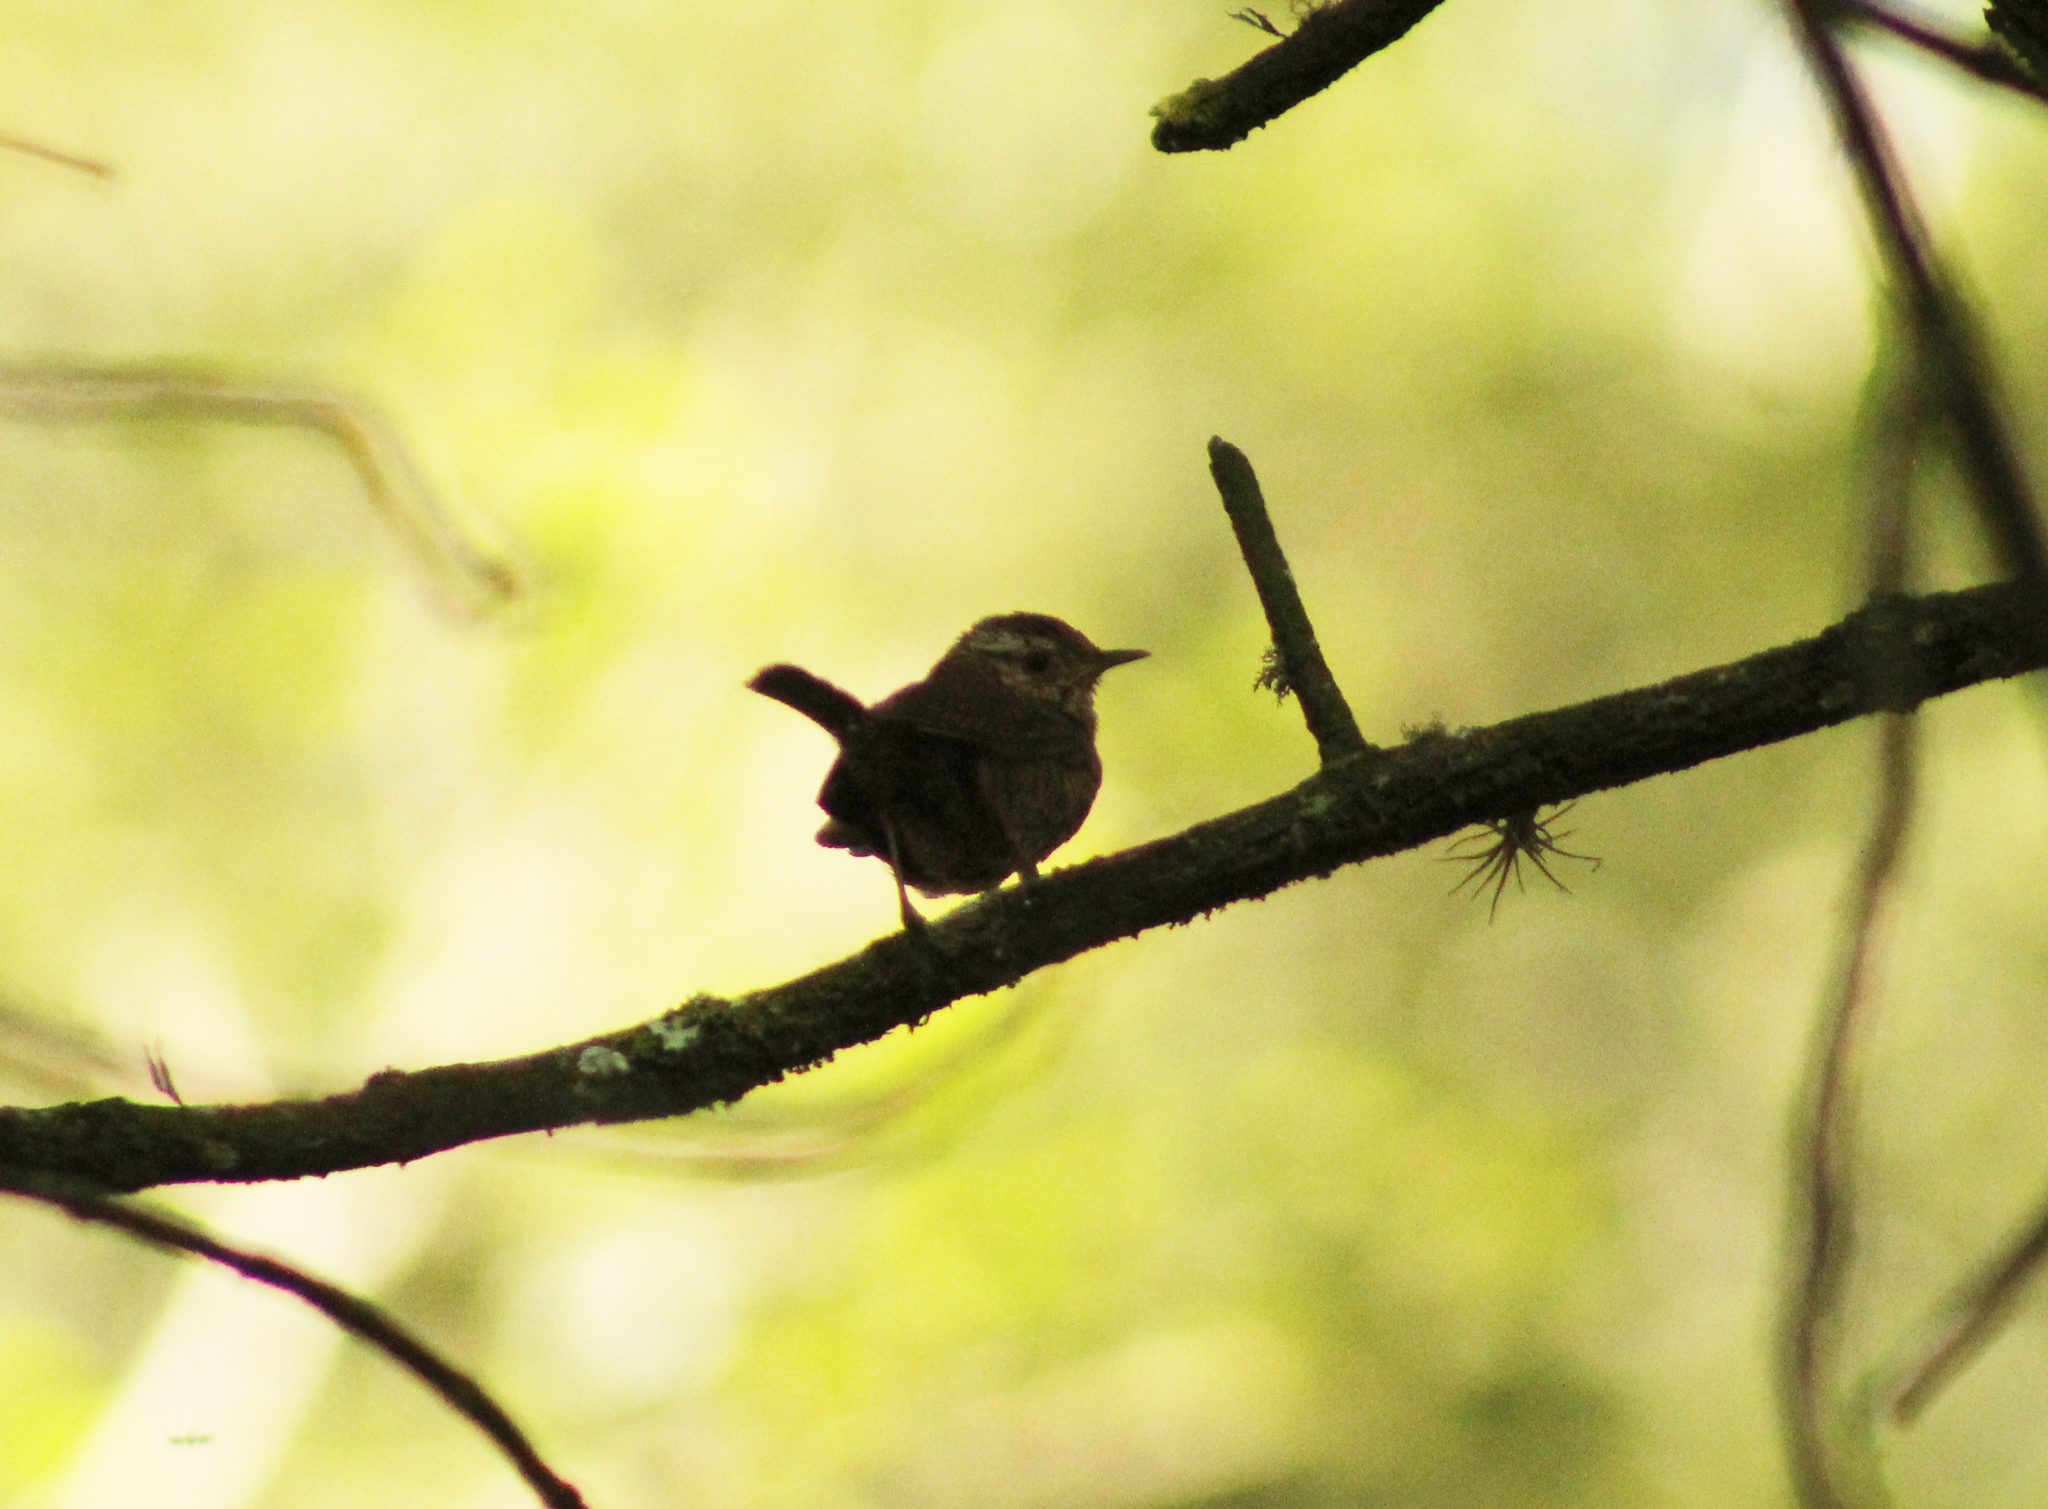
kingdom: Animalia
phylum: Chordata
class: Aves
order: Passeriformes
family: Troglodytidae
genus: Troglodytes
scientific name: Troglodytes aedon
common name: House wren
